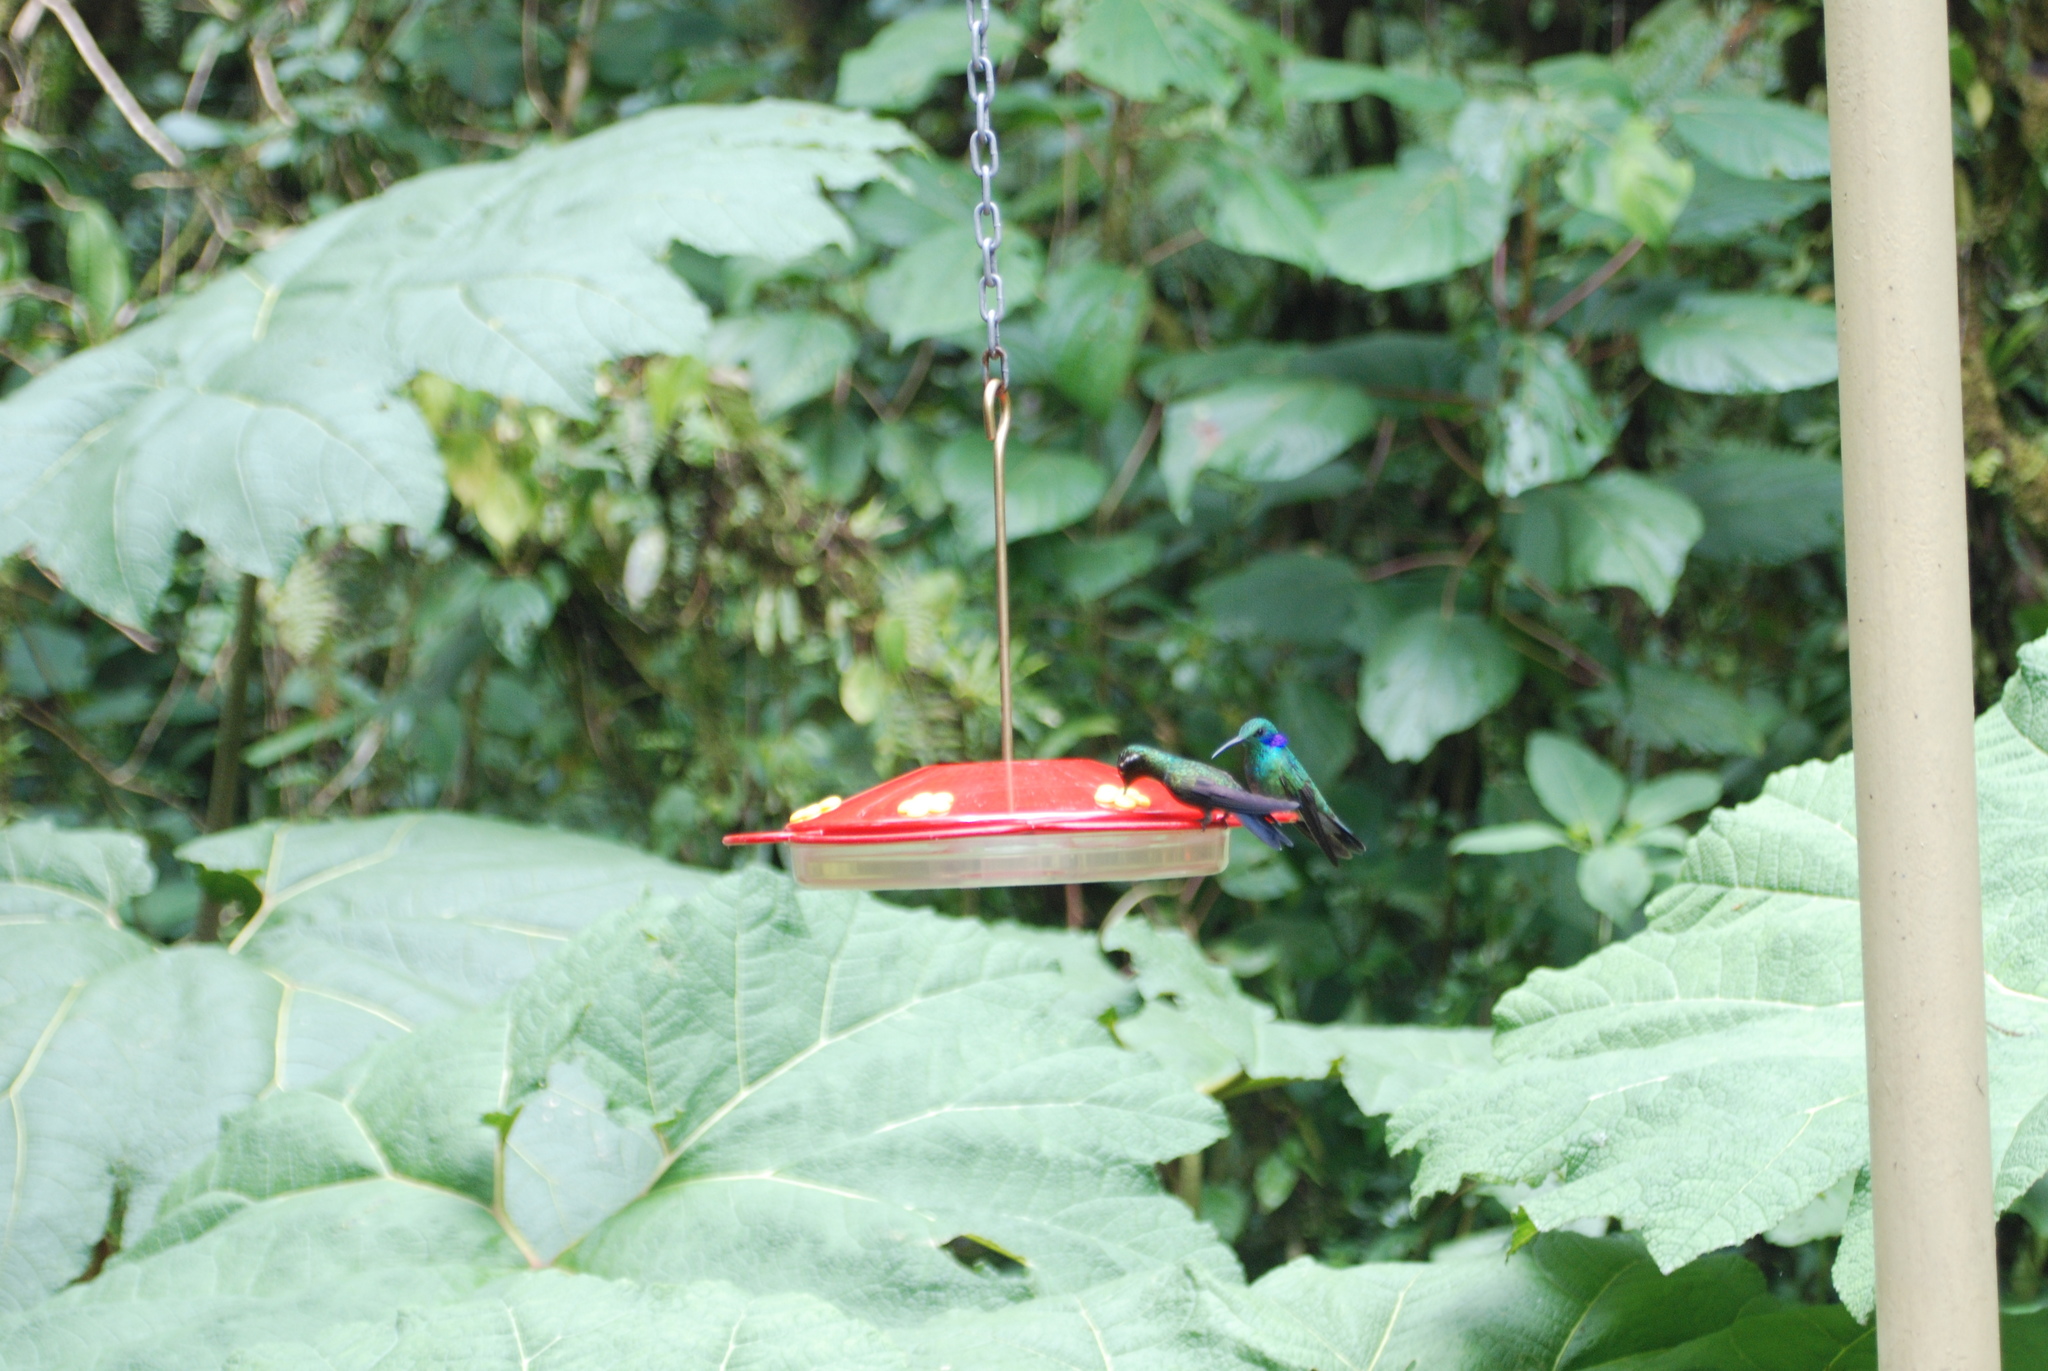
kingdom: Animalia
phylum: Chordata
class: Aves
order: Apodiformes
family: Trochilidae
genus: Colibri
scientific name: Colibri cyanotus
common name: Lesser violetear
